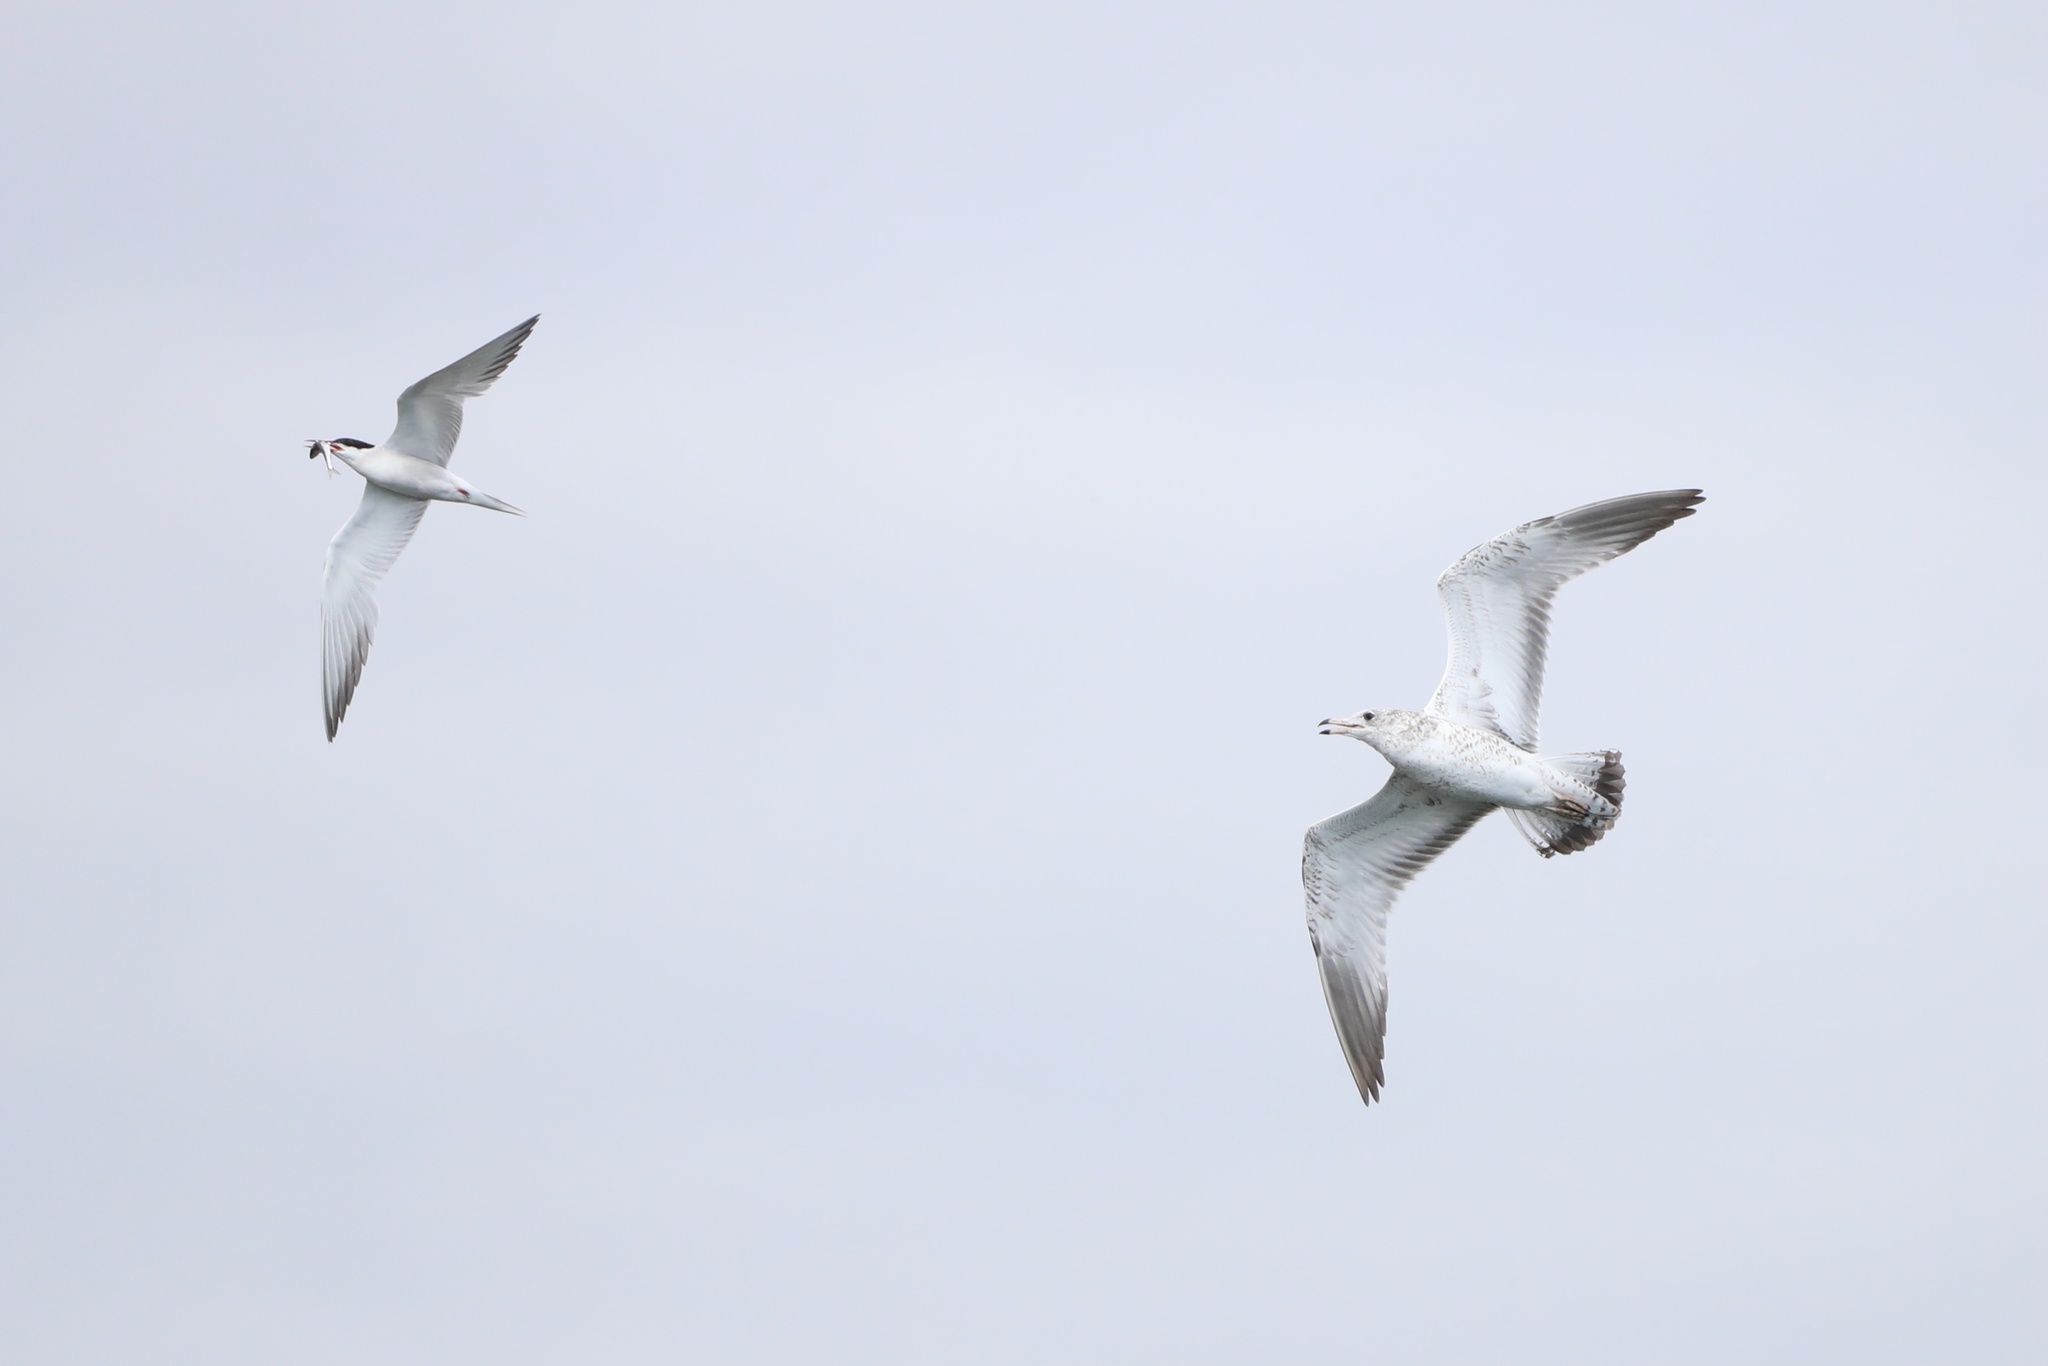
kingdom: Animalia
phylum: Chordata
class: Aves
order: Charadriiformes
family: Laridae
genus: Sterna
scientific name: Sterna hirundo
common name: Common tern
